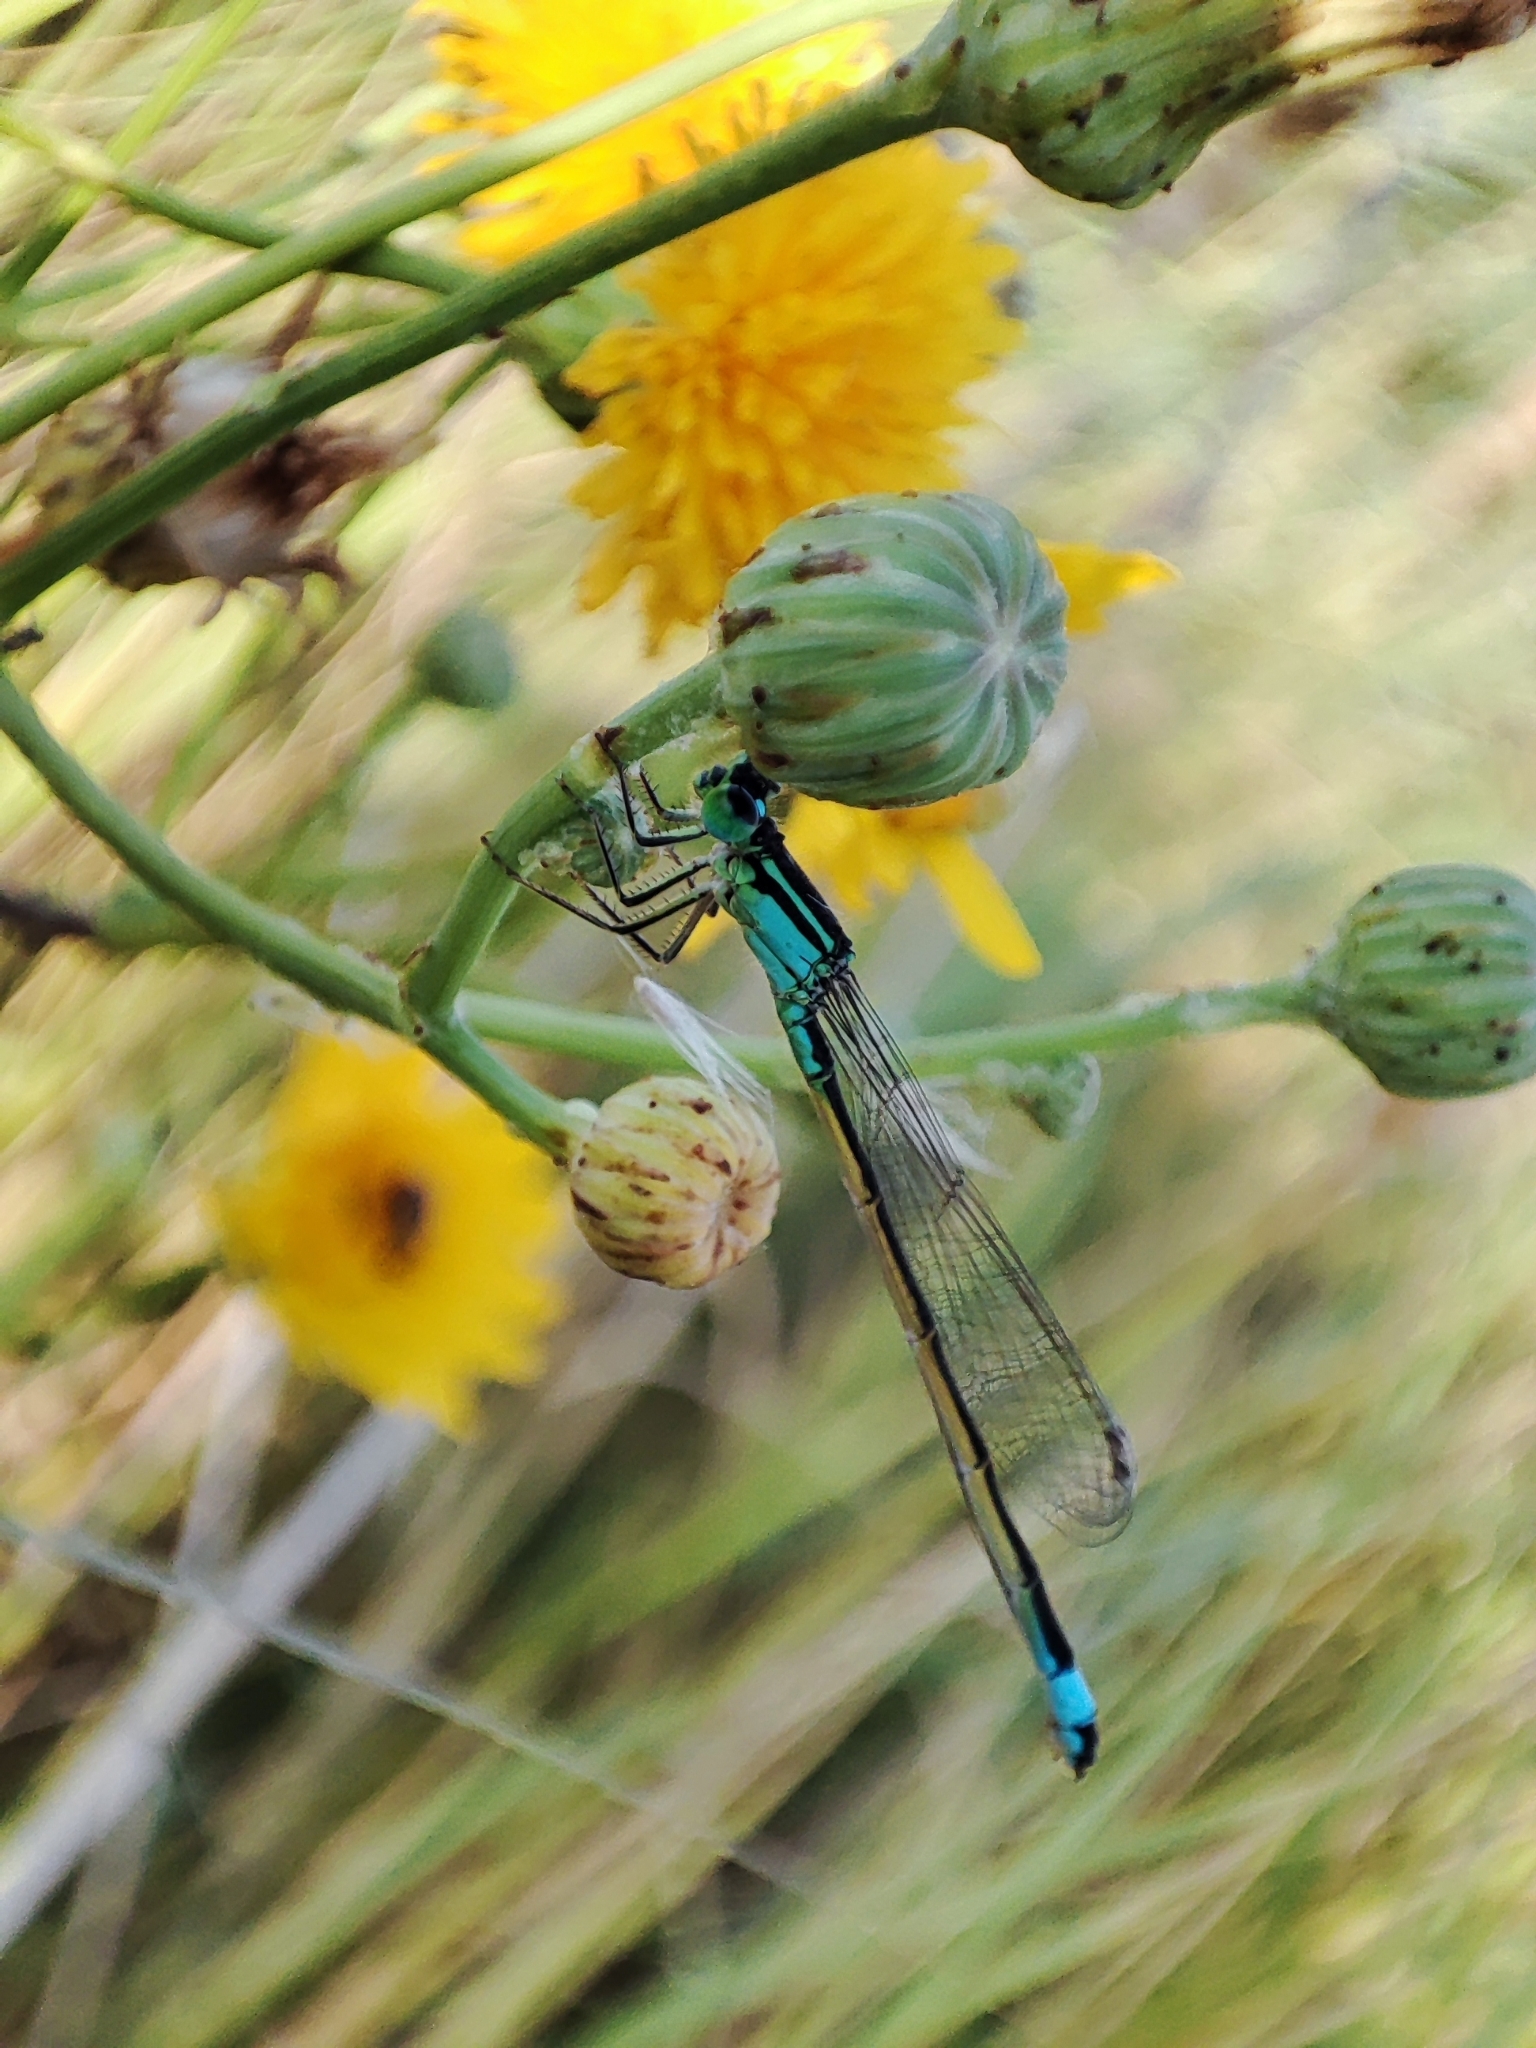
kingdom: Animalia
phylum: Arthropoda
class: Insecta
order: Odonata
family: Coenagrionidae
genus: Ischnura
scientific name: Ischnura elegans
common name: Blue-tailed damselfly
